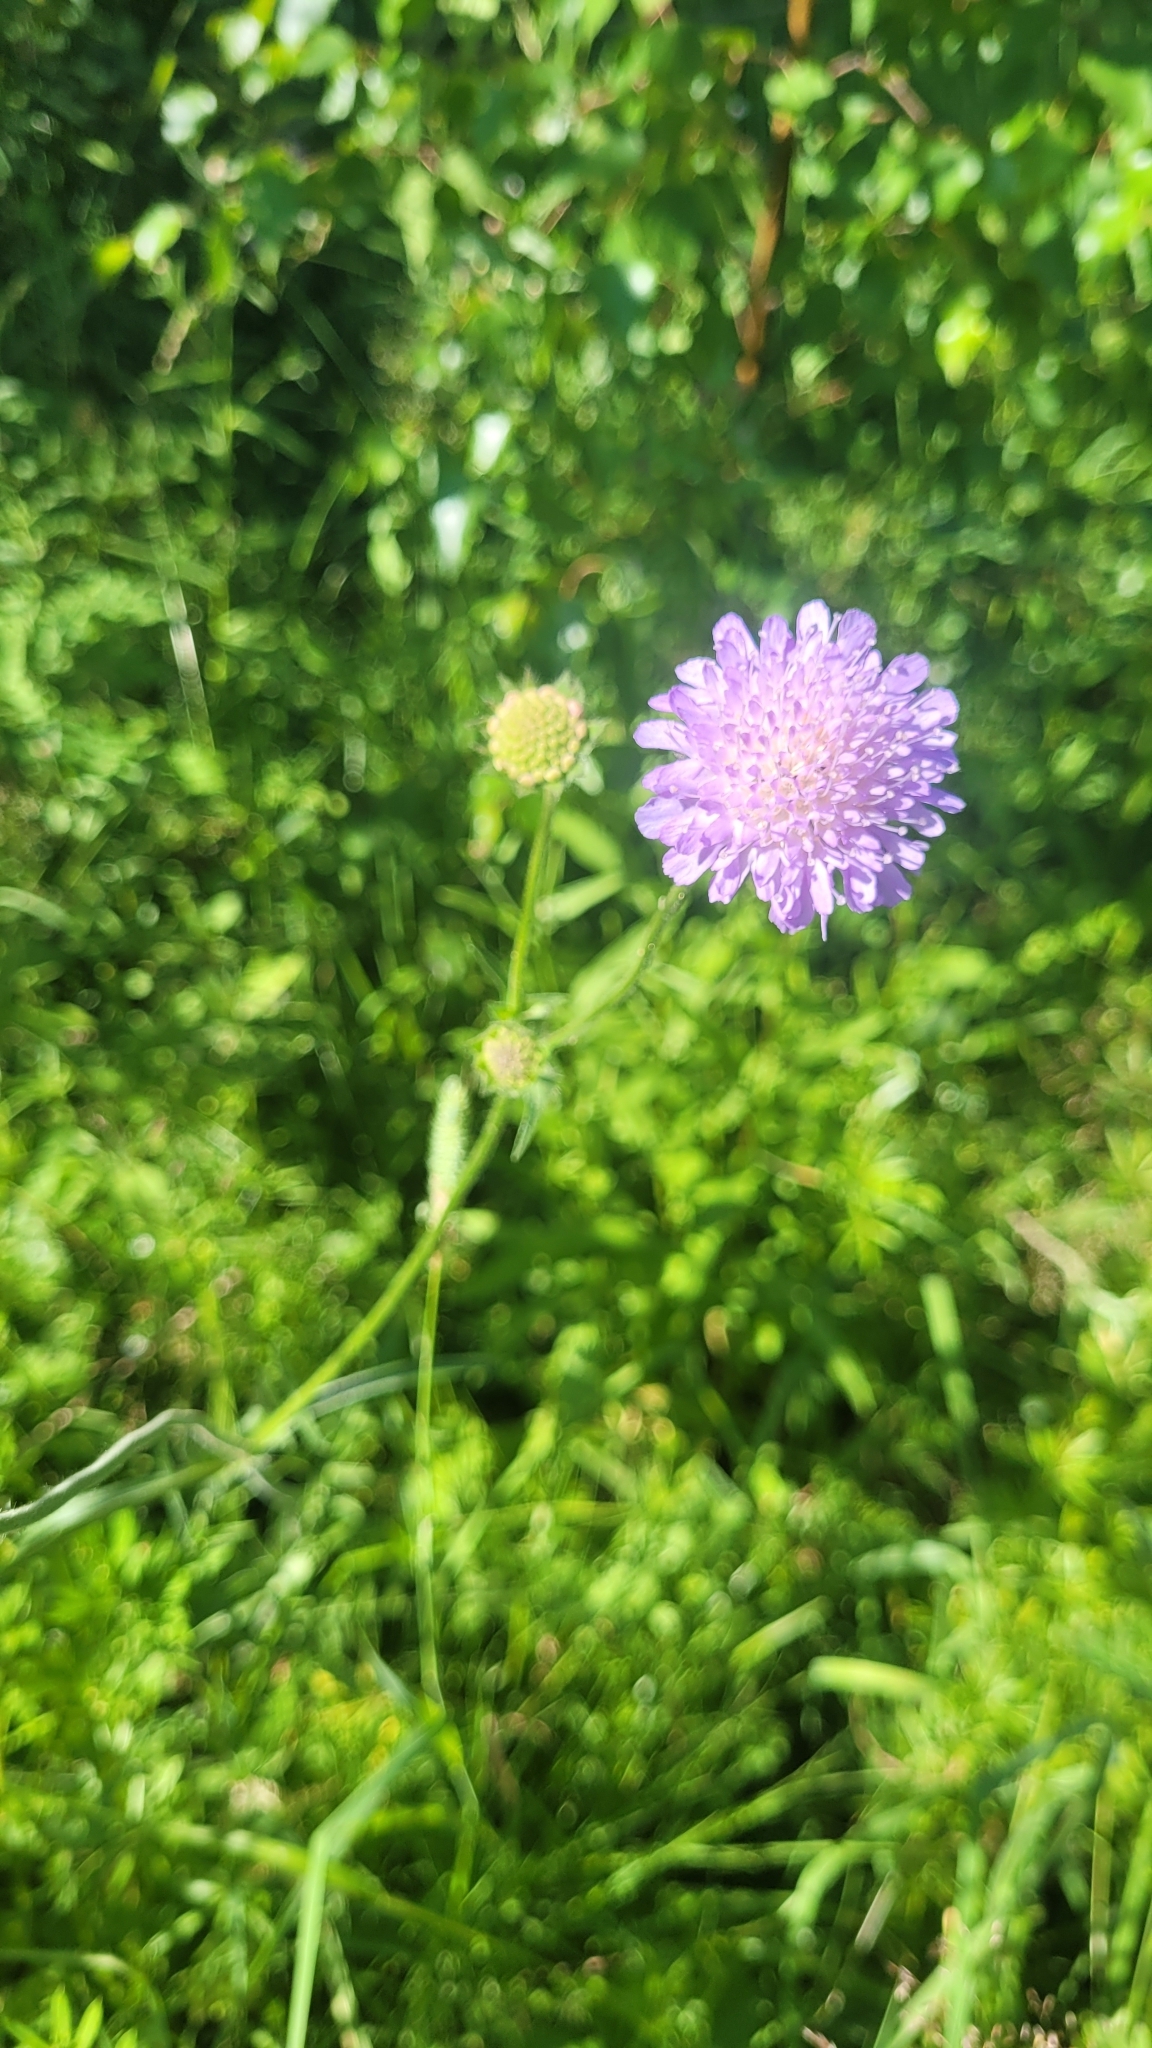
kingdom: Plantae
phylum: Tracheophyta
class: Magnoliopsida
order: Dipsacales
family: Caprifoliaceae
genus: Knautia
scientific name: Knautia arvensis
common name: Field scabiosa
